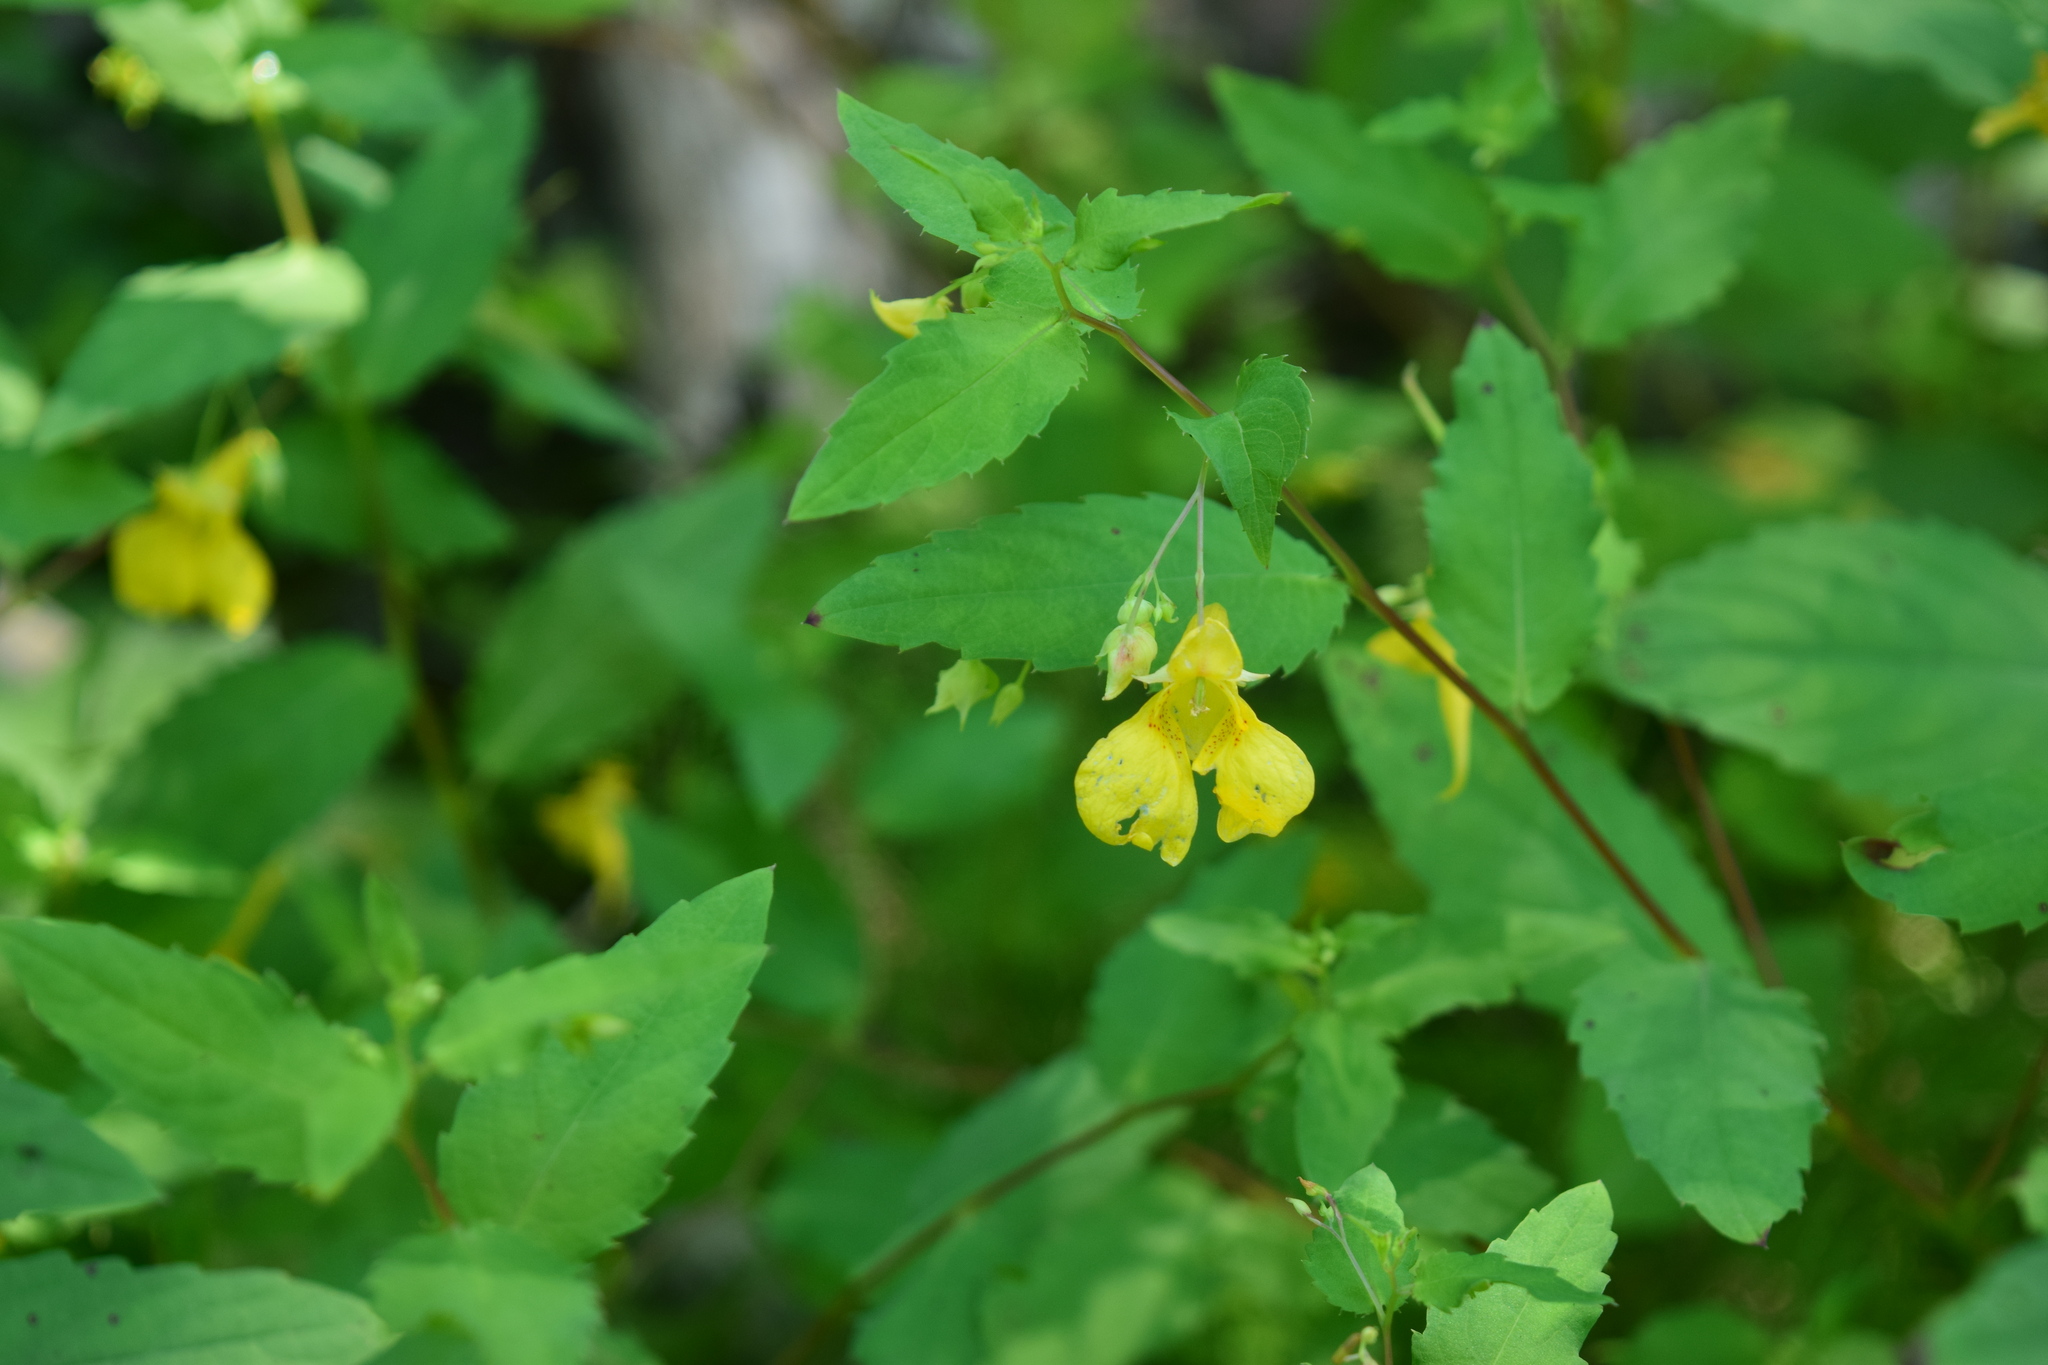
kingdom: Plantae
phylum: Tracheophyta
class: Magnoliopsida
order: Ericales
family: Balsaminaceae
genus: Impatiens
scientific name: Impatiens noli-tangere
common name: Touch-me-not balsam
